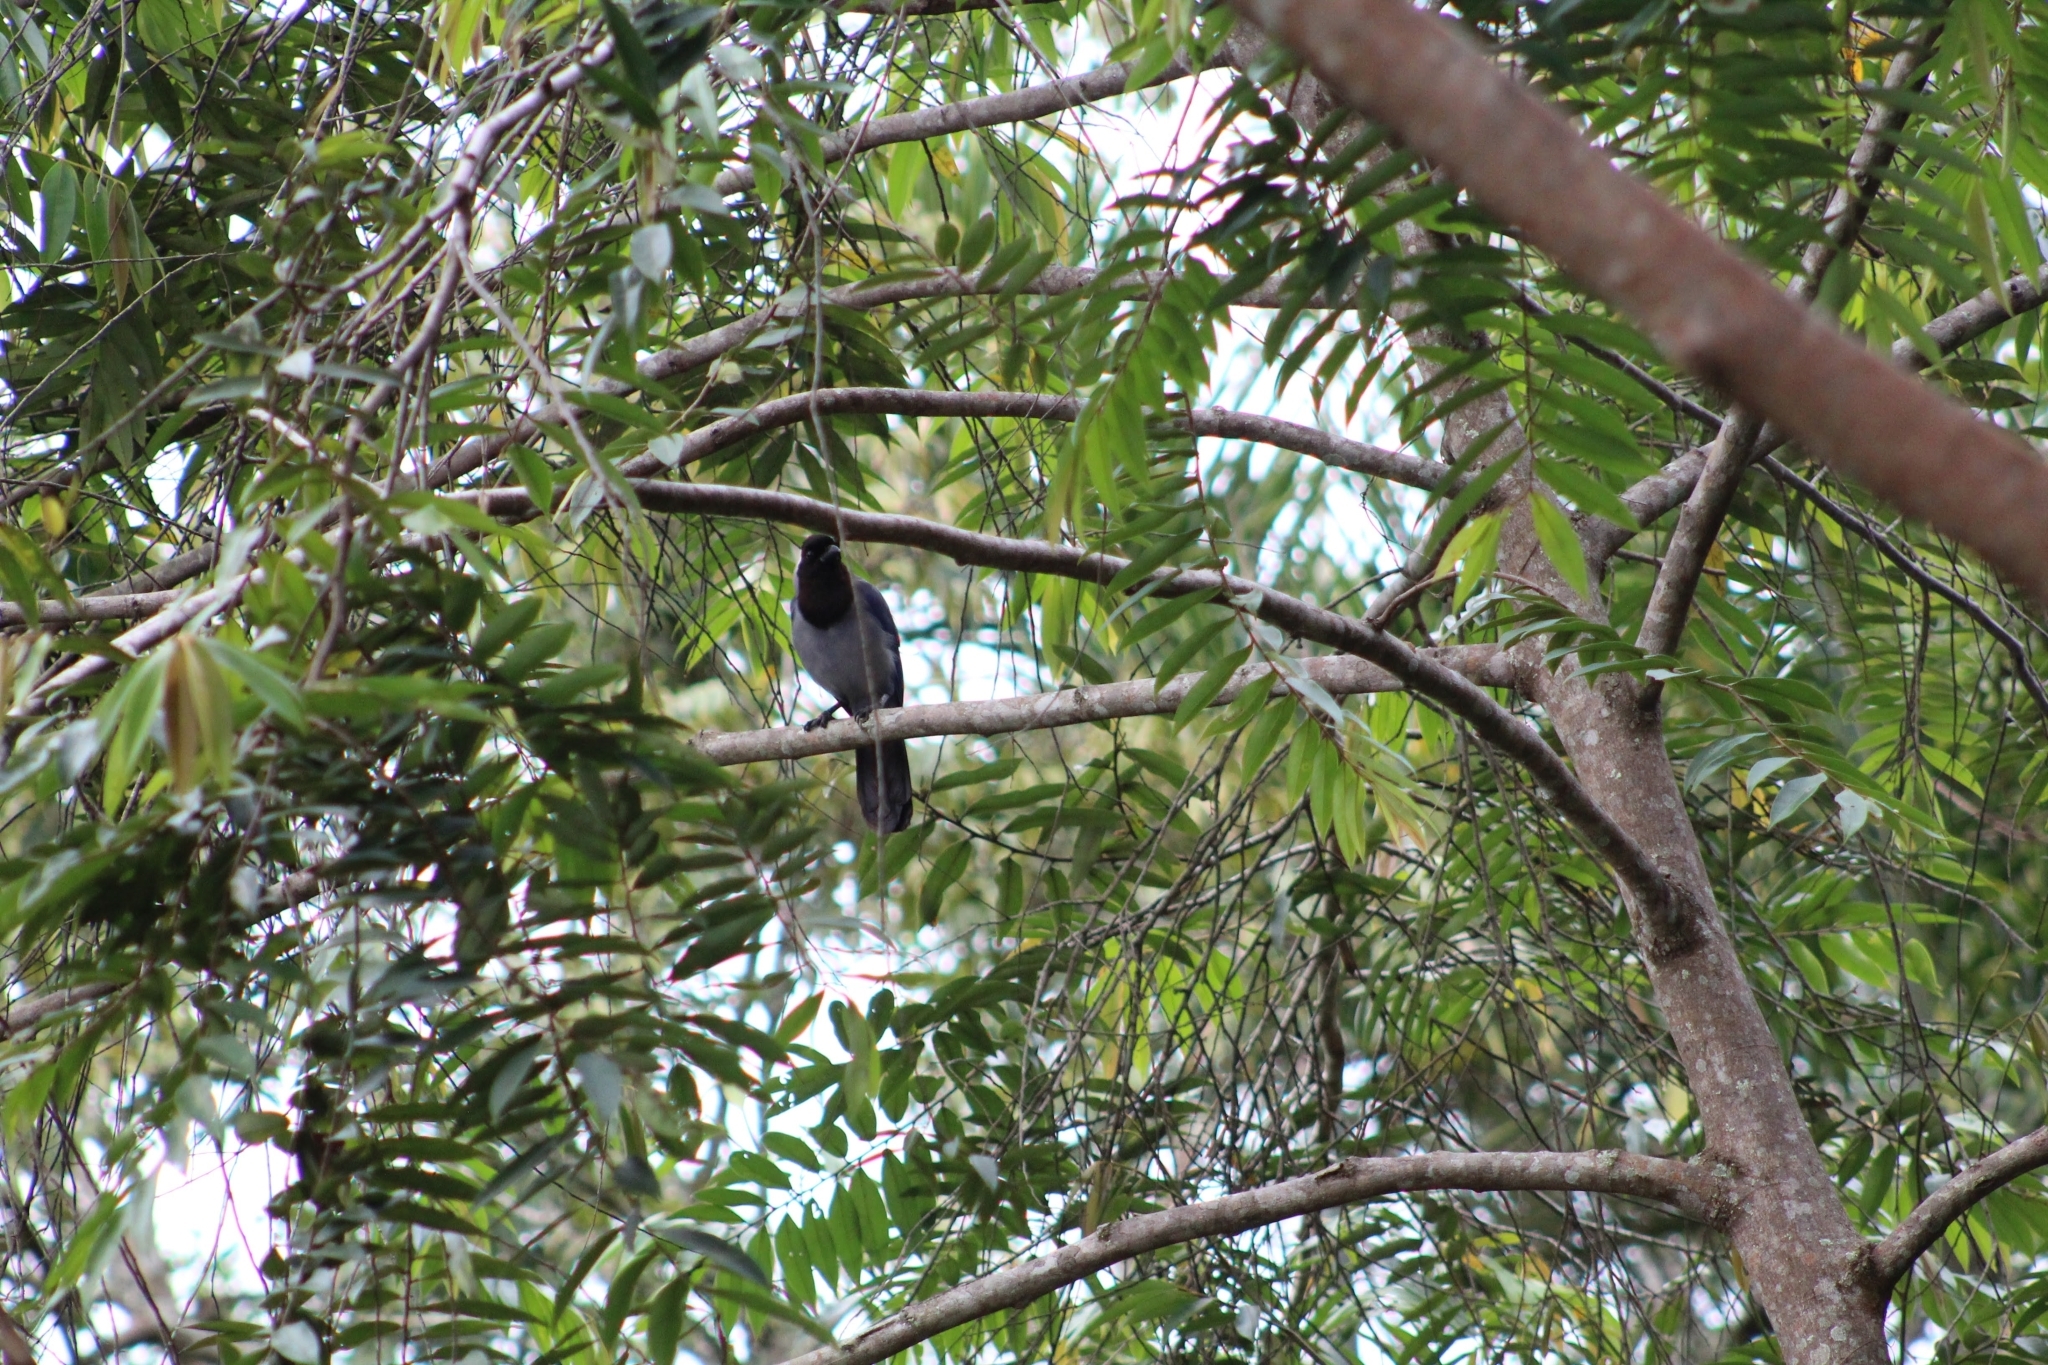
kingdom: Animalia
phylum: Chordata
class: Aves
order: Passeriformes
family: Corvidae
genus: Cyanocorax
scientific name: Cyanocorax violaceus
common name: Violaceous jay
